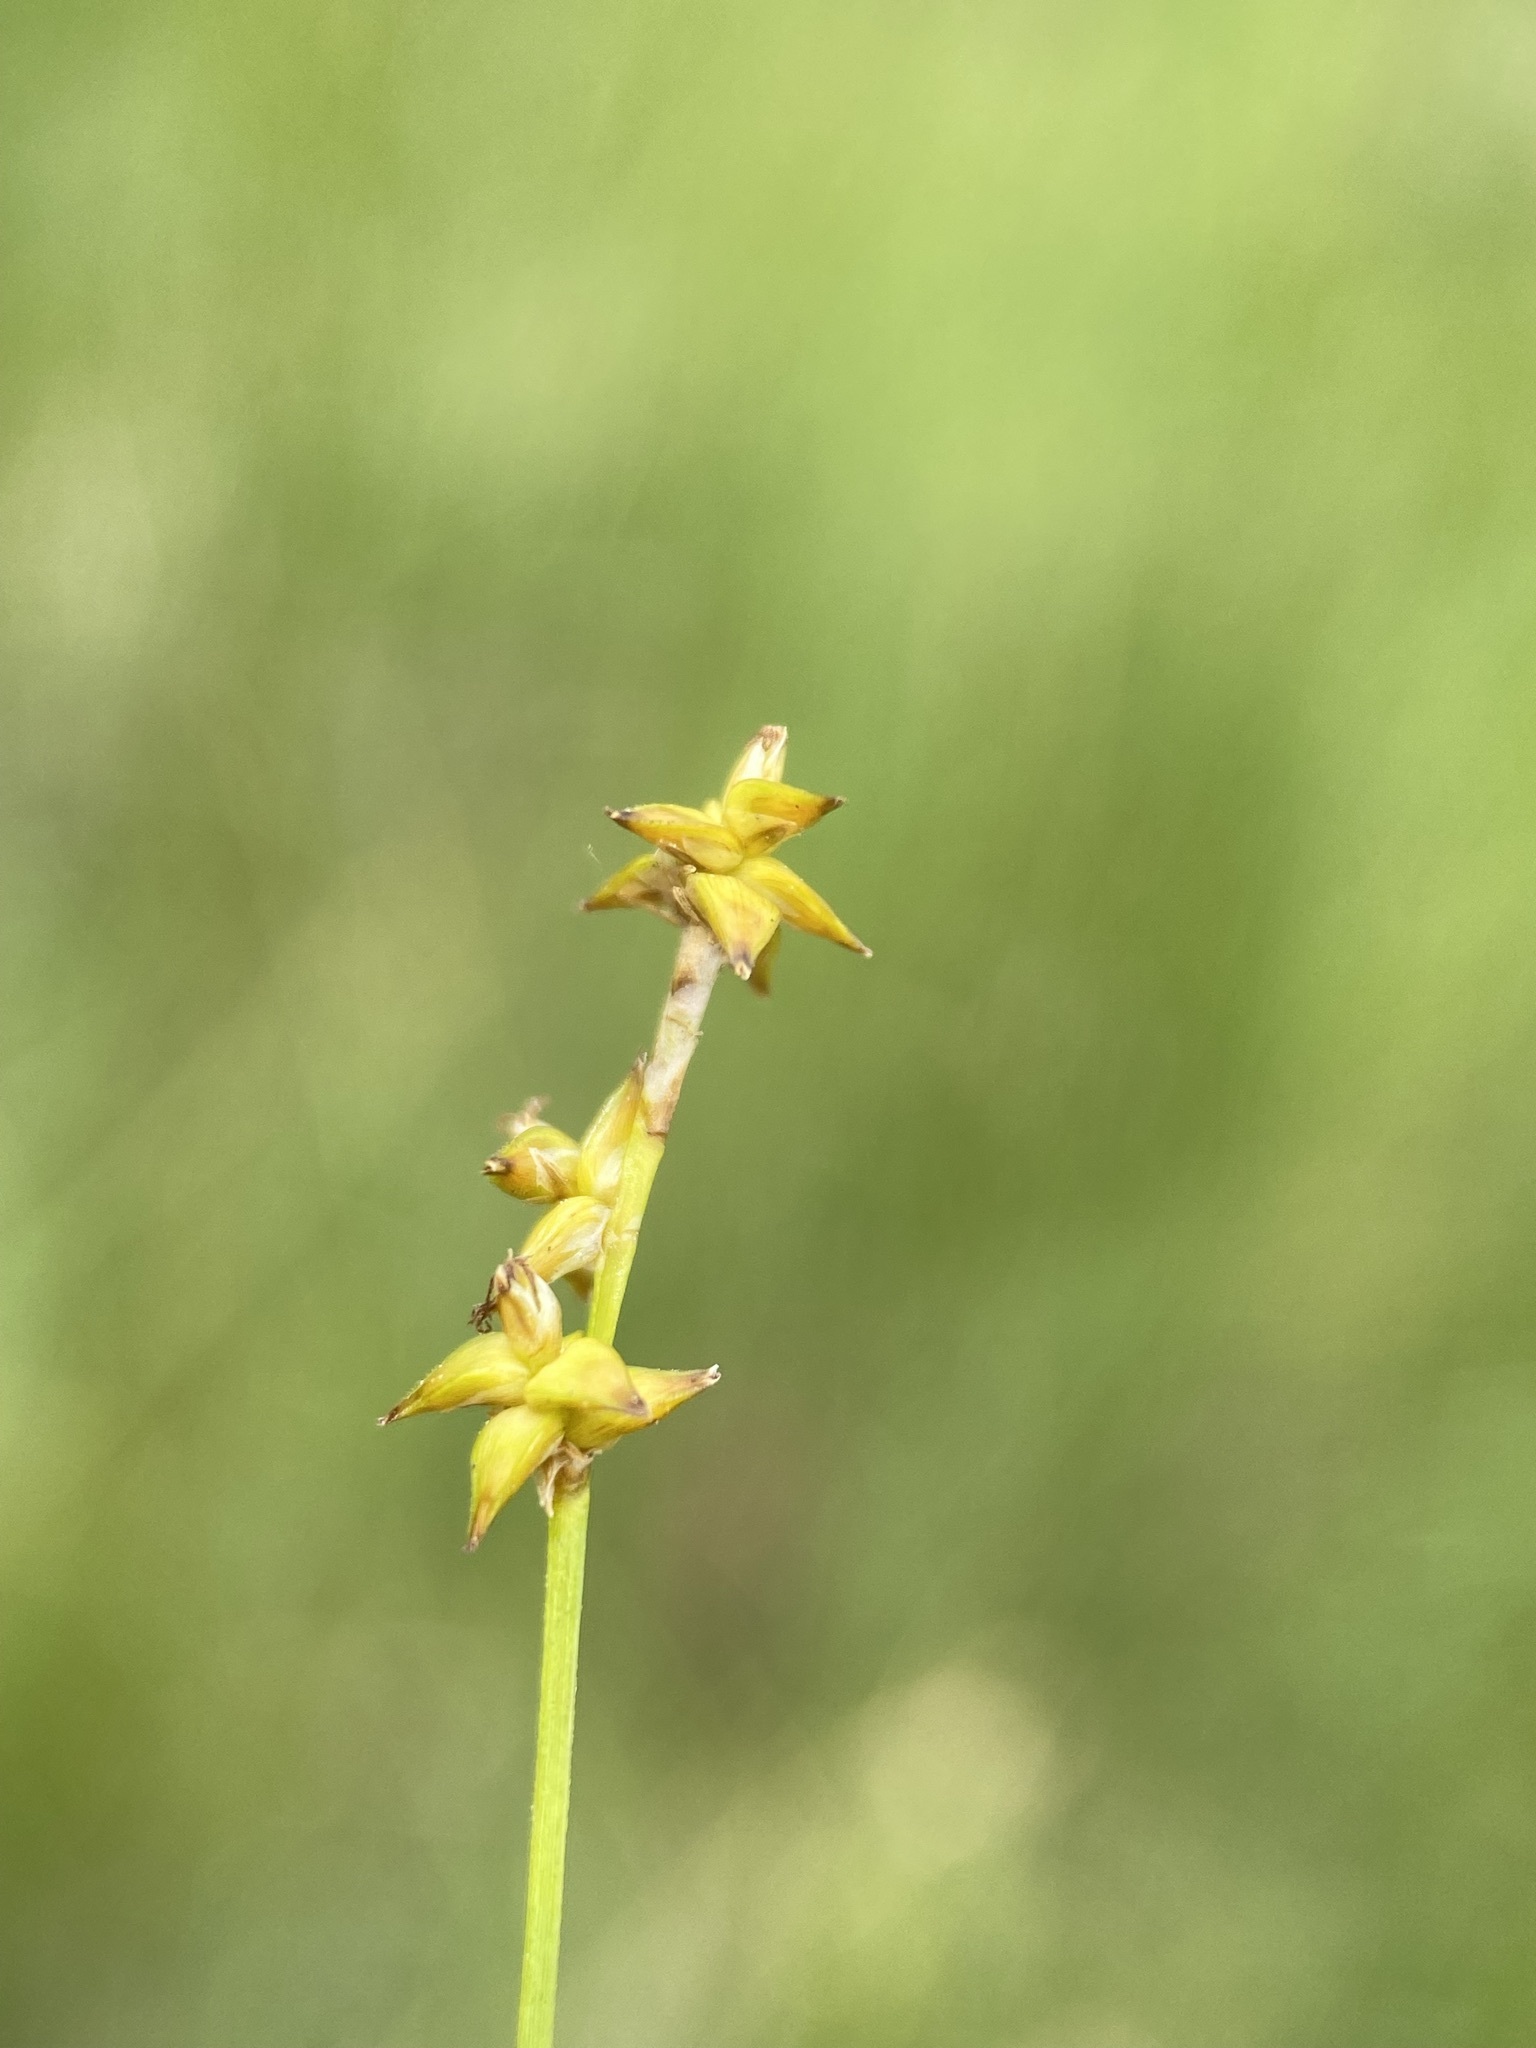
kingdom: Plantae
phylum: Tracheophyta
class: Liliopsida
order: Poales
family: Cyperaceae
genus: Carex
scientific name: Carex interior
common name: Inland sedge
